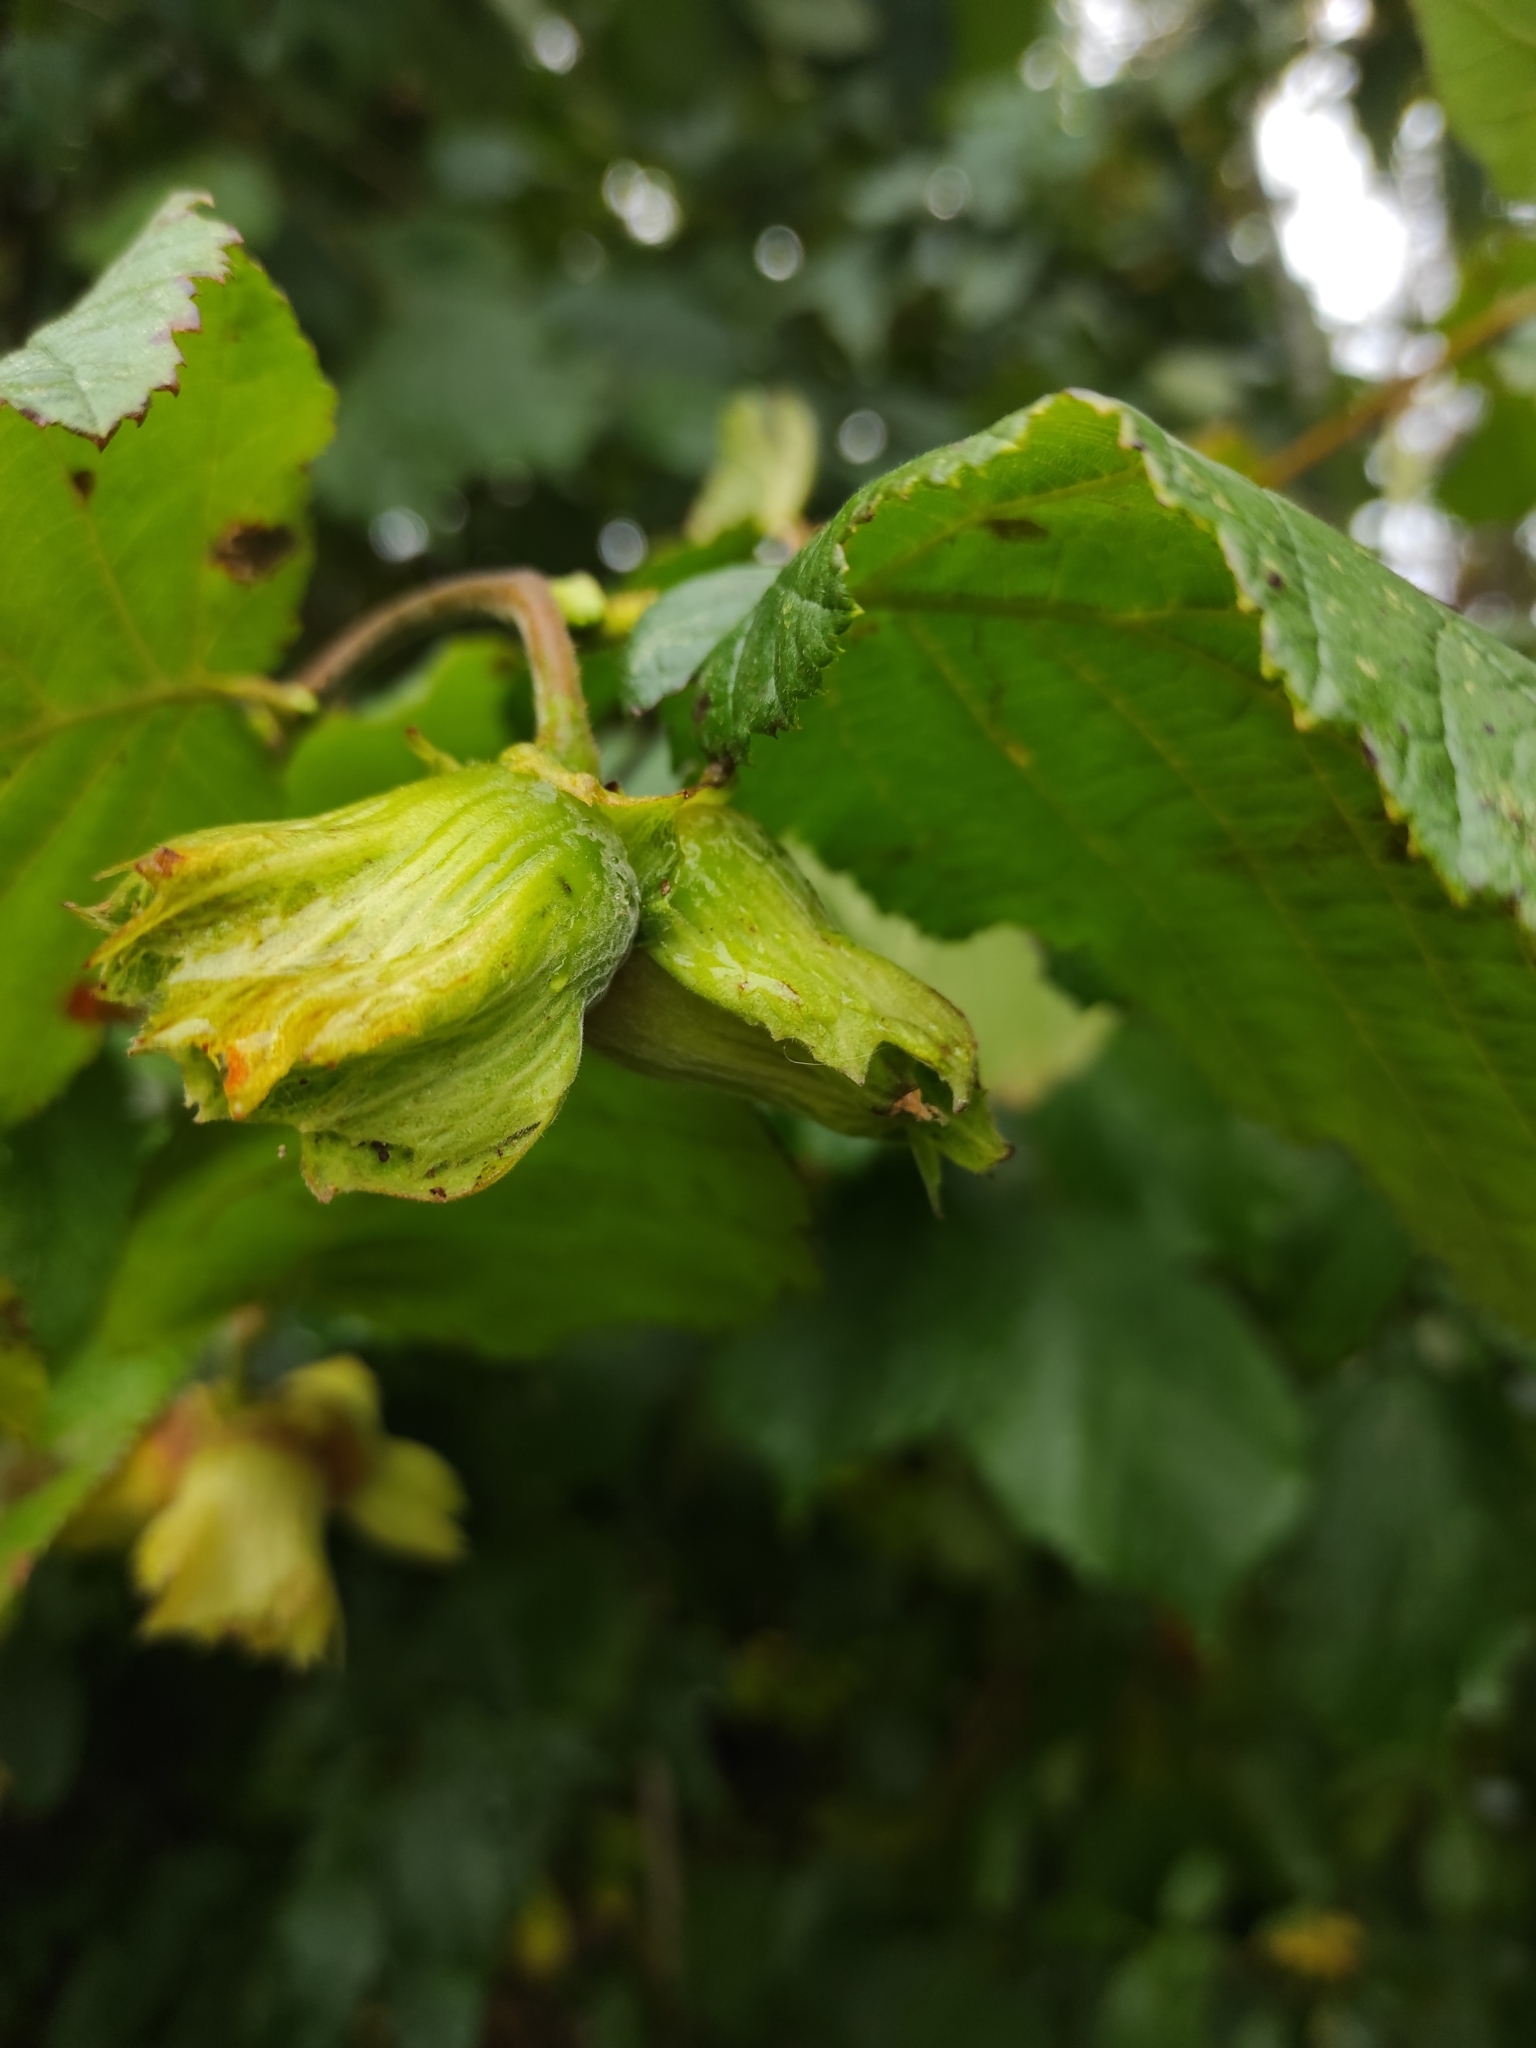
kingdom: Plantae
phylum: Tracheophyta
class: Magnoliopsida
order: Fagales
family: Betulaceae
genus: Corylus
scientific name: Corylus avellana
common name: European hazel
